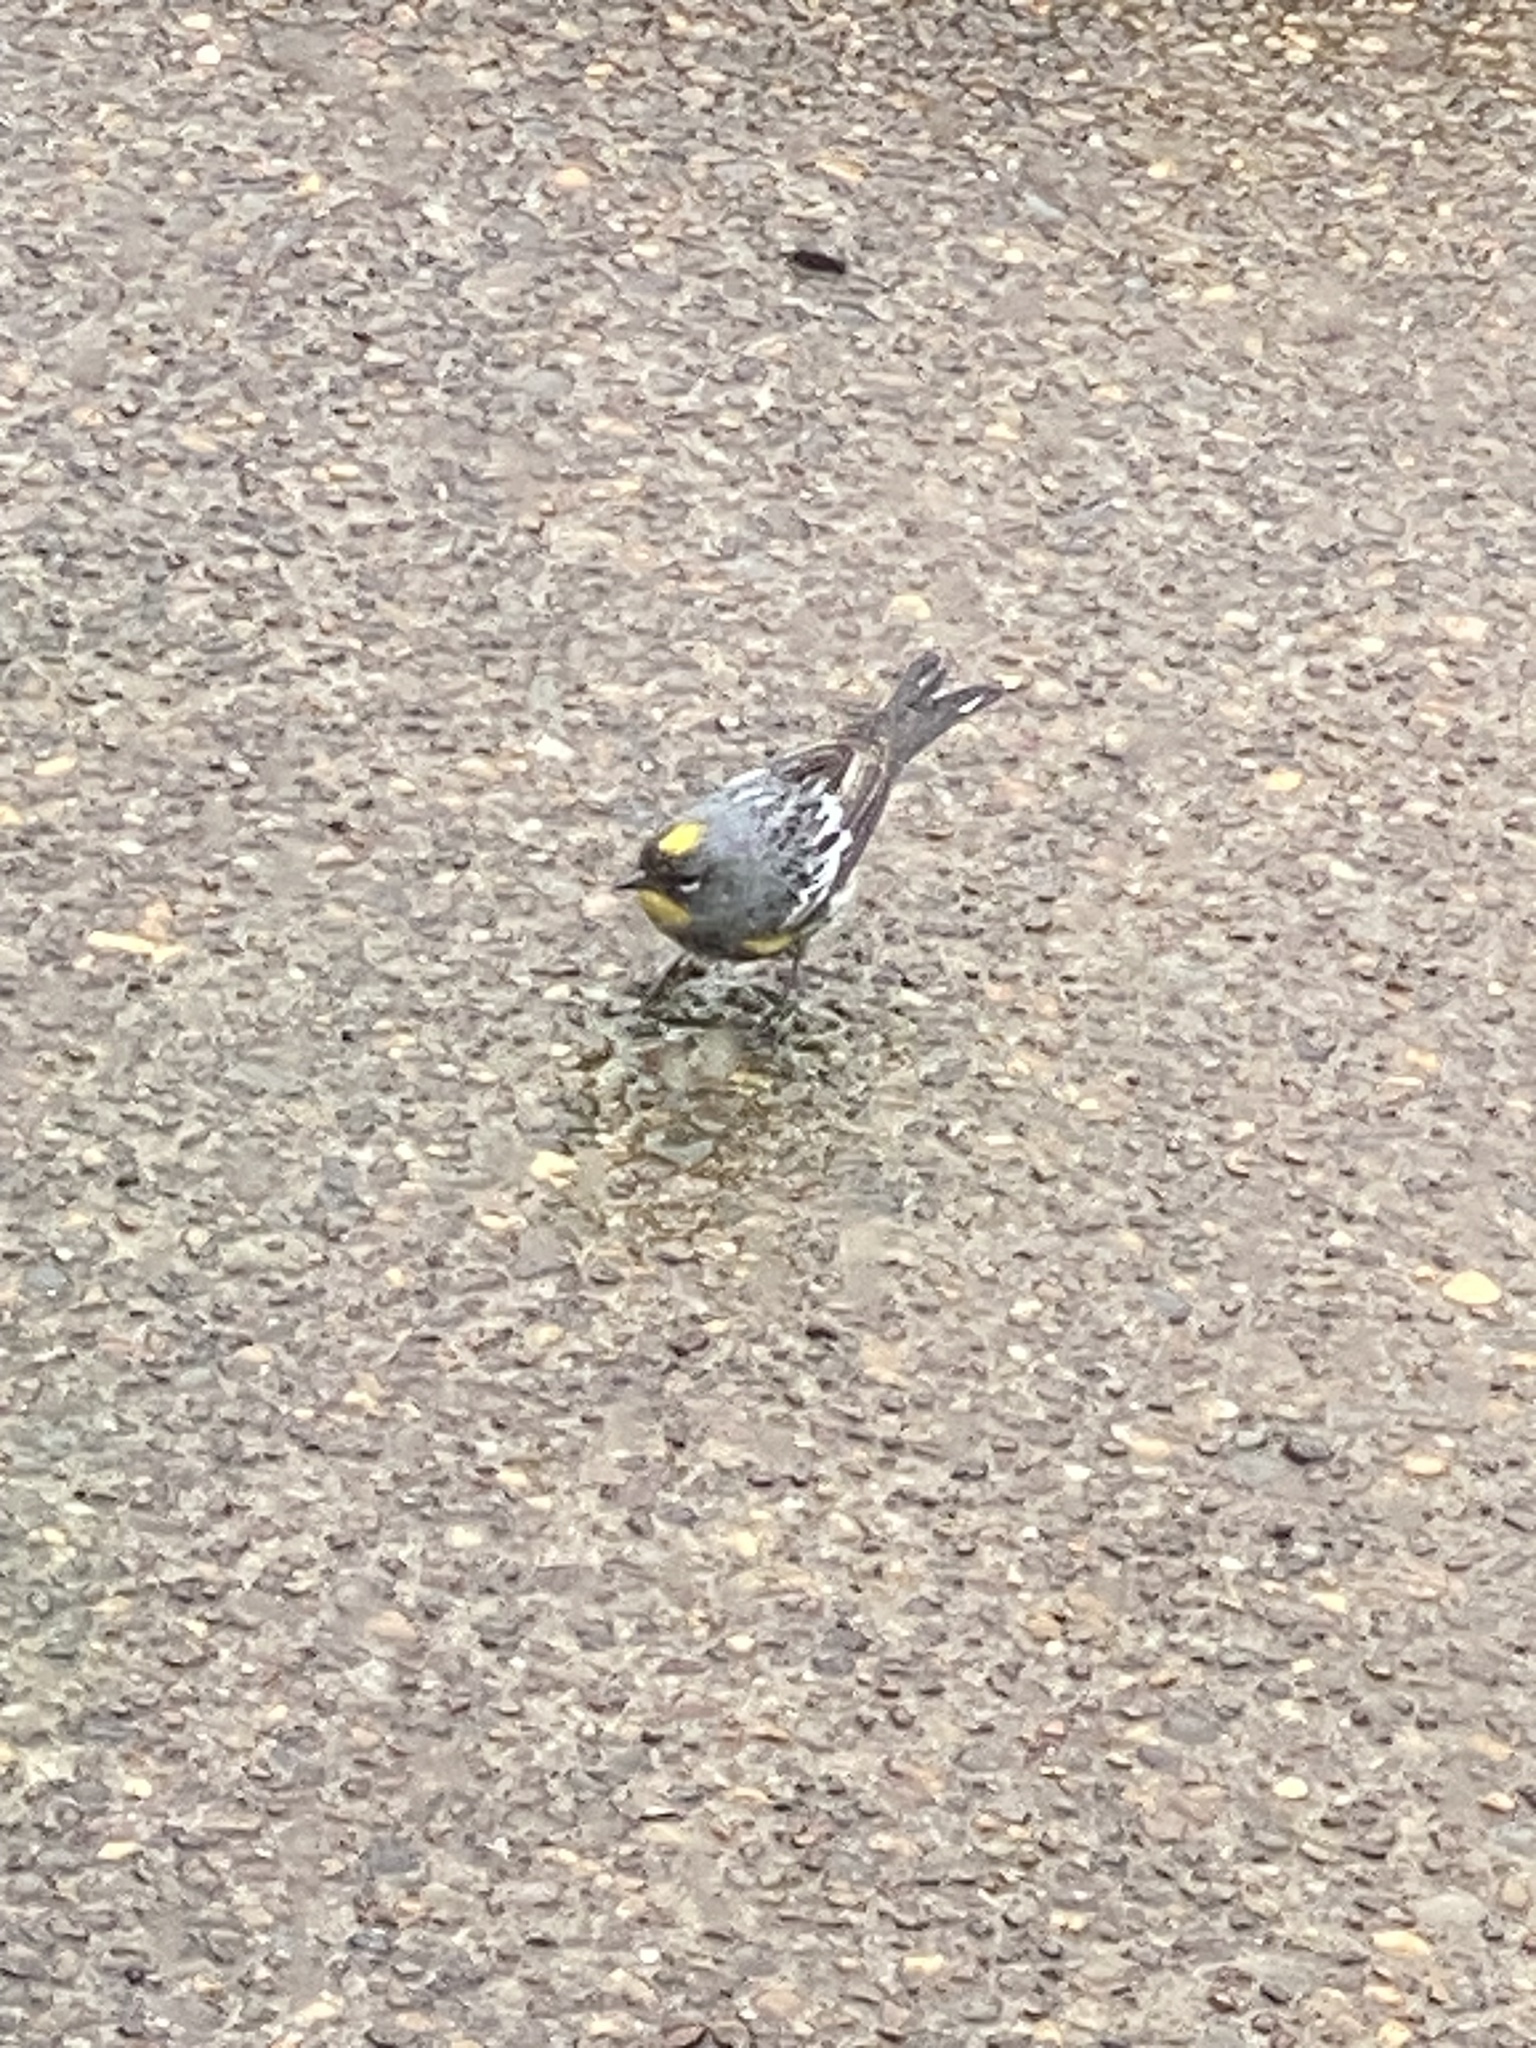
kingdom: Animalia
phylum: Chordata
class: Aves
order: Passeriformes
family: Parulidae
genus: Setophaga
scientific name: Setophaga coronata
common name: Myrtle warbler
